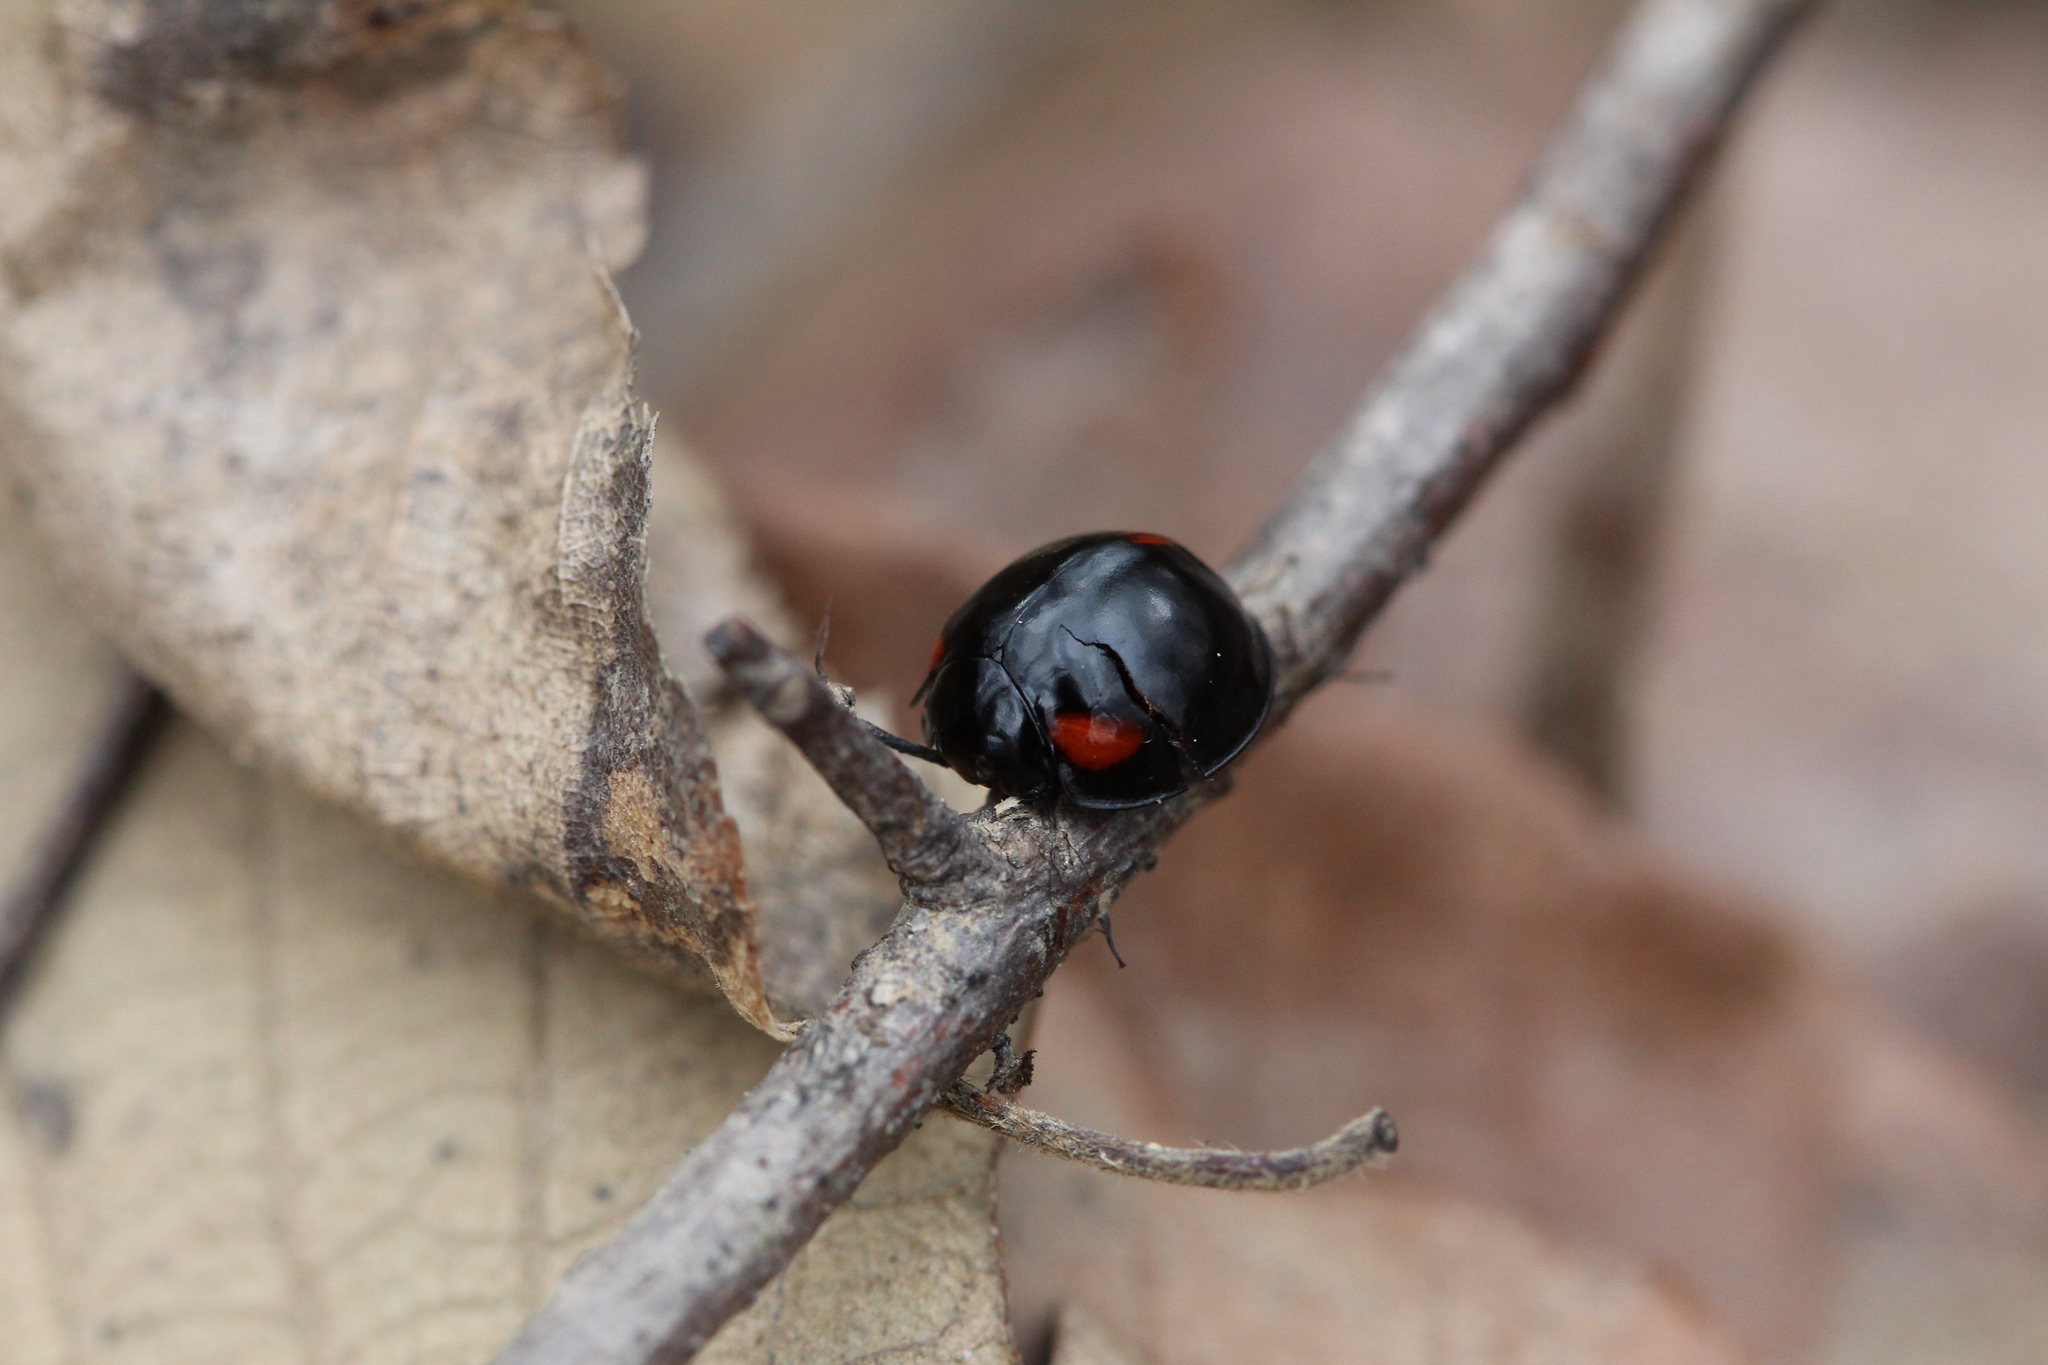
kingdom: Animalia
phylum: Arthropoda
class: Insecta
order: Coleoptera
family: Coccinellidae
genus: Axion
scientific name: Axion tripustulatum
